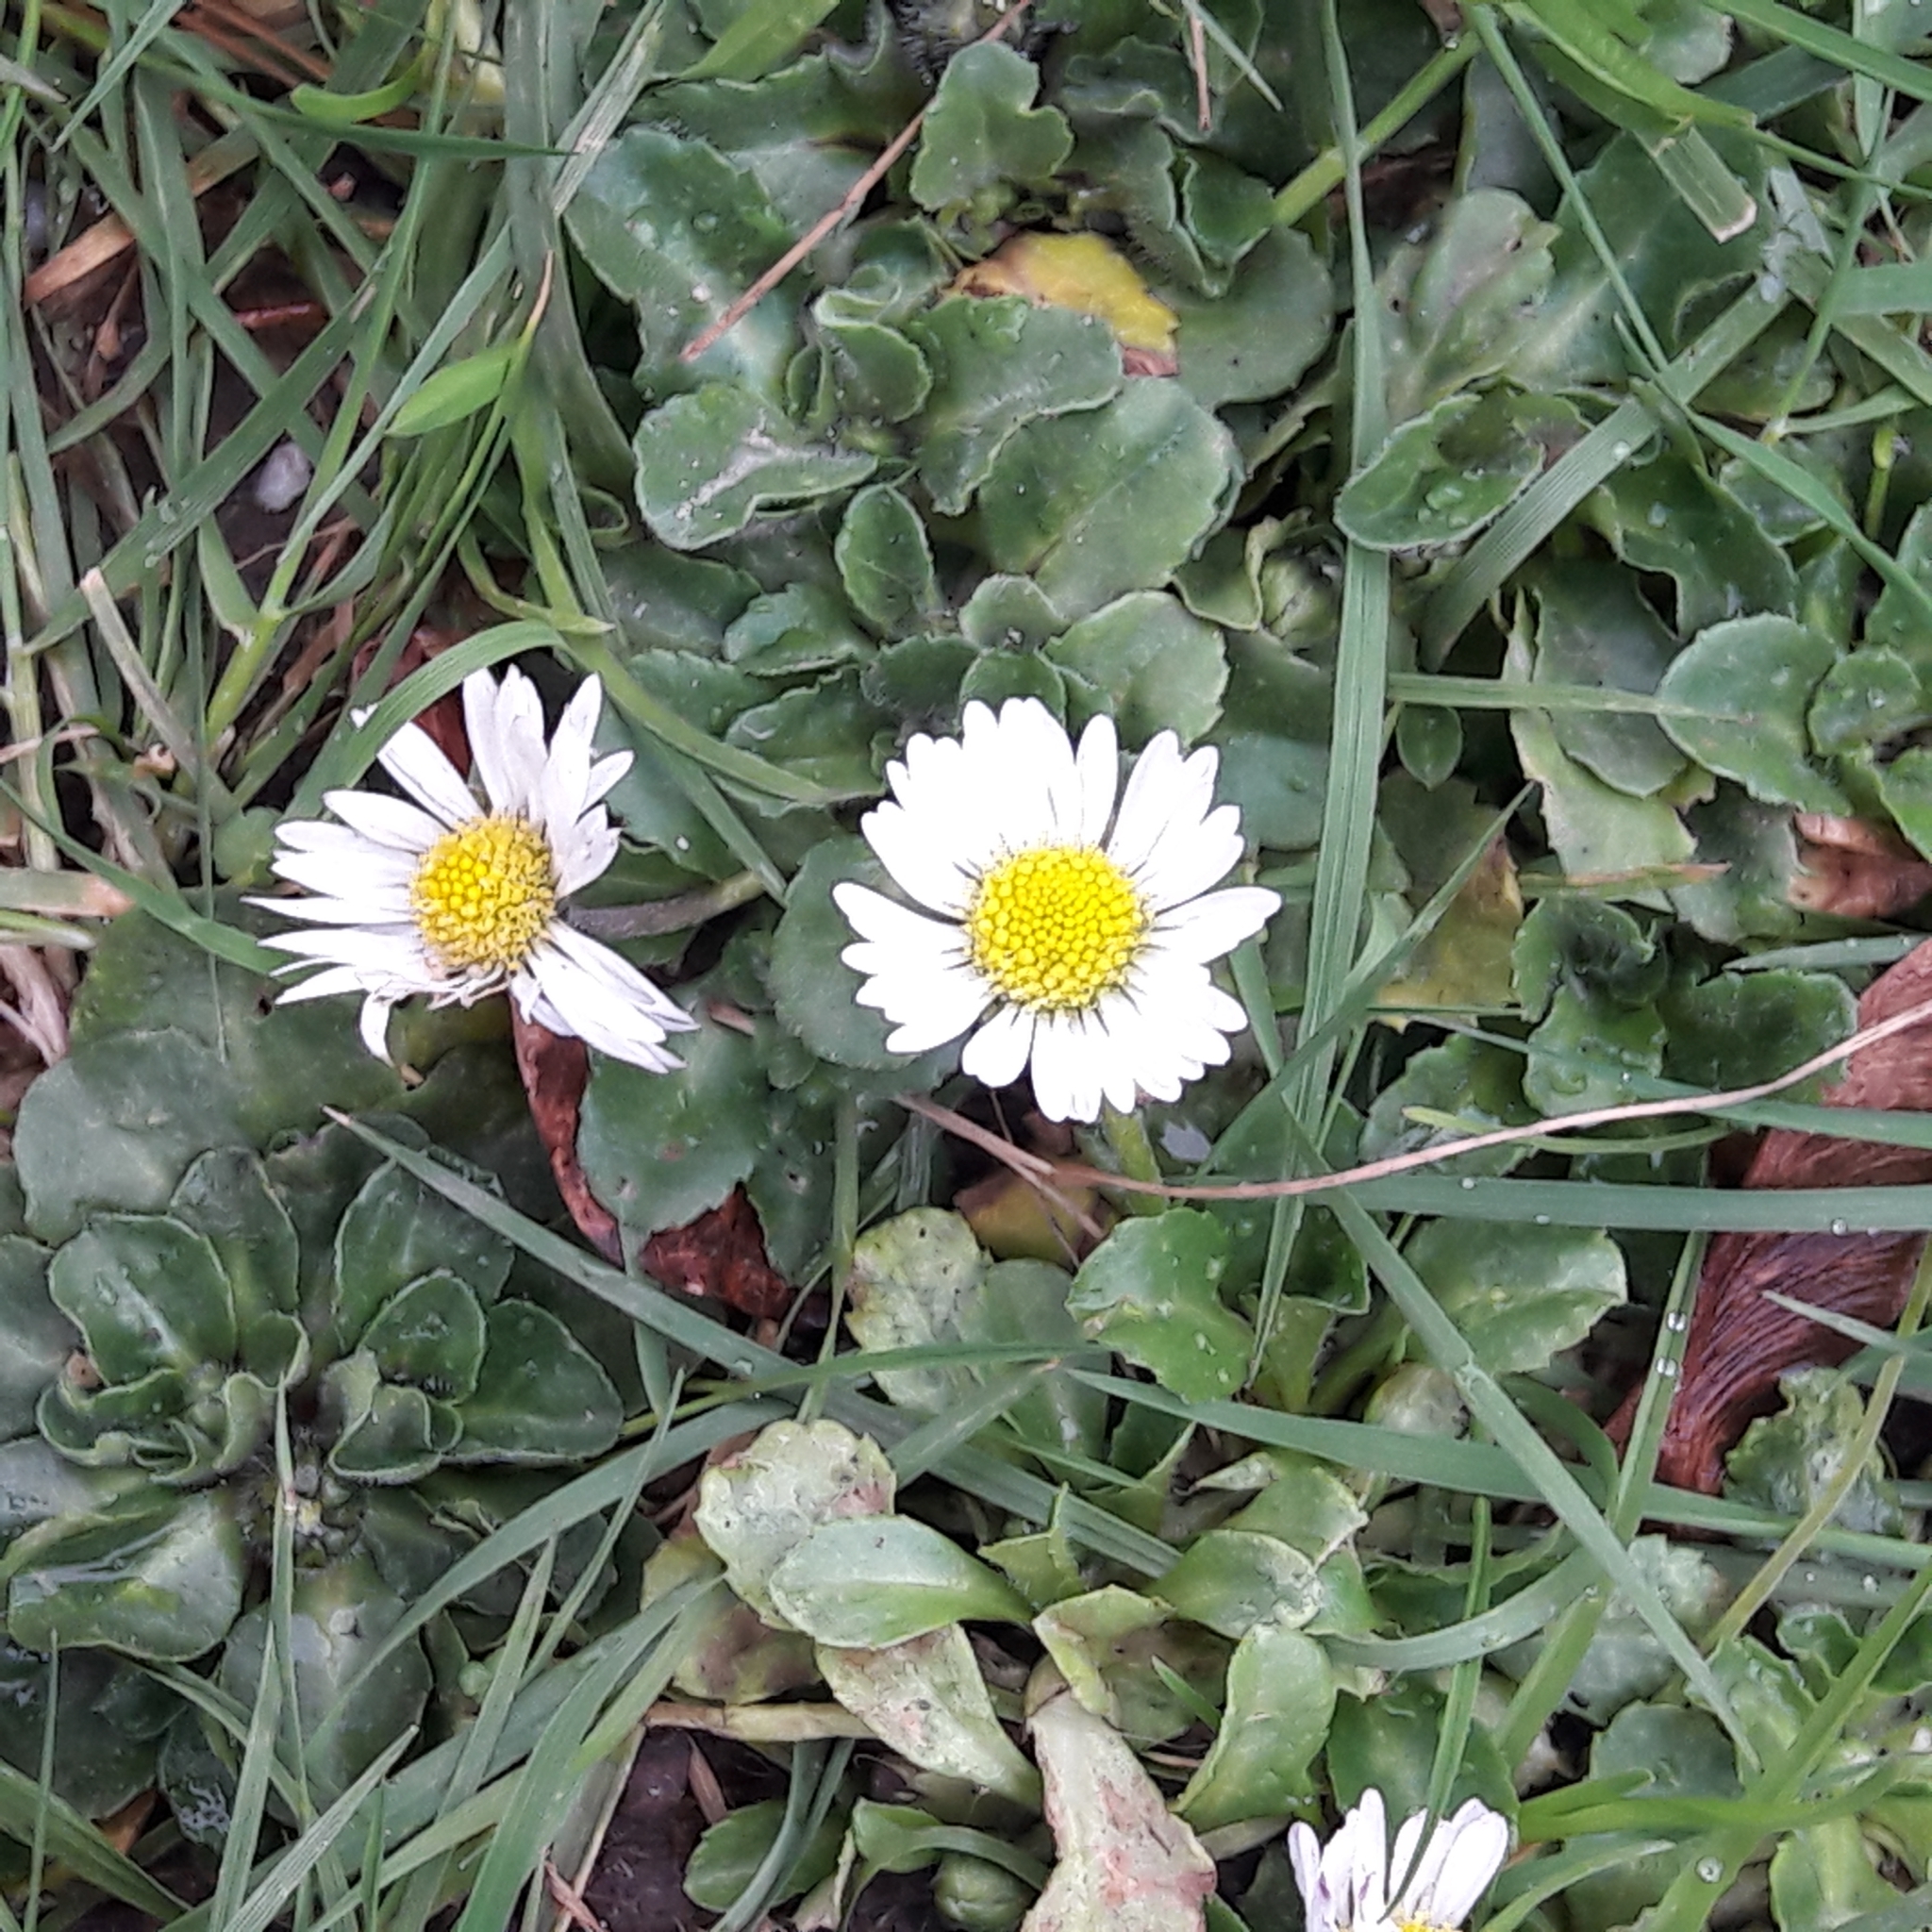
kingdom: Plantae
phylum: Tracheophyta
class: Magnoliopsida
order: Asterales
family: Asteraceae
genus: Bellis
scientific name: Bellis perennis
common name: Lawndaisy
